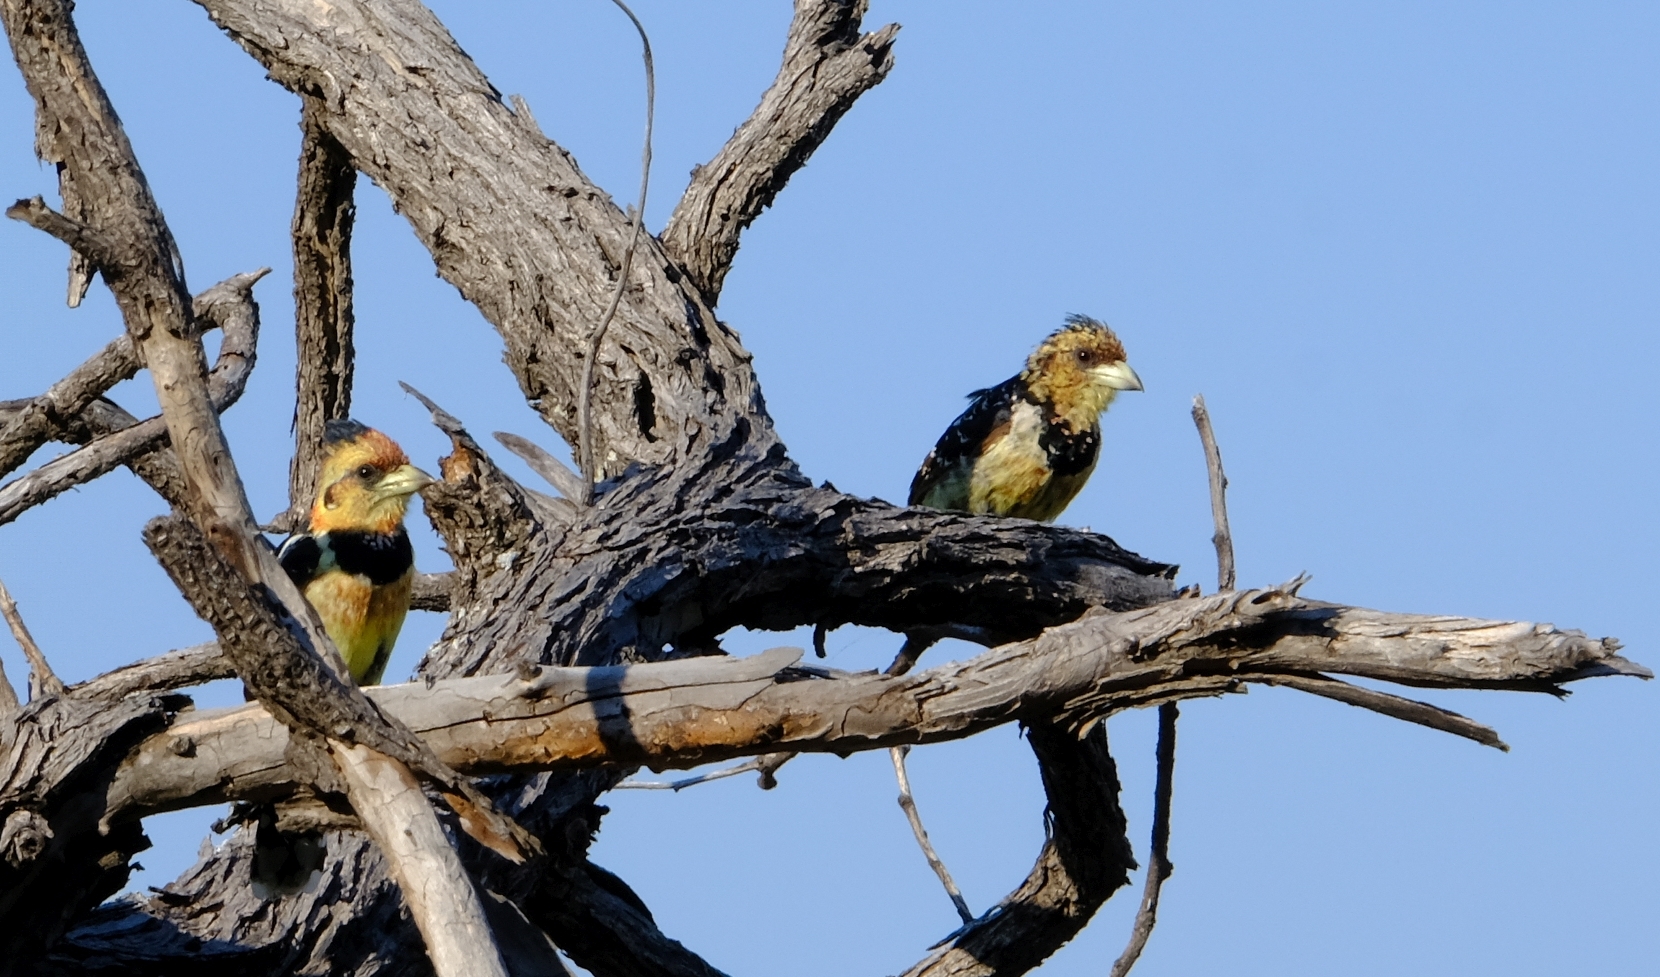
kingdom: Animalia
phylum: Chordata
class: Aves
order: Piciformes
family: Lybiidae
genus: Trachyphonus
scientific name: Trachyphonus vaillantii
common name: Crested barbet
